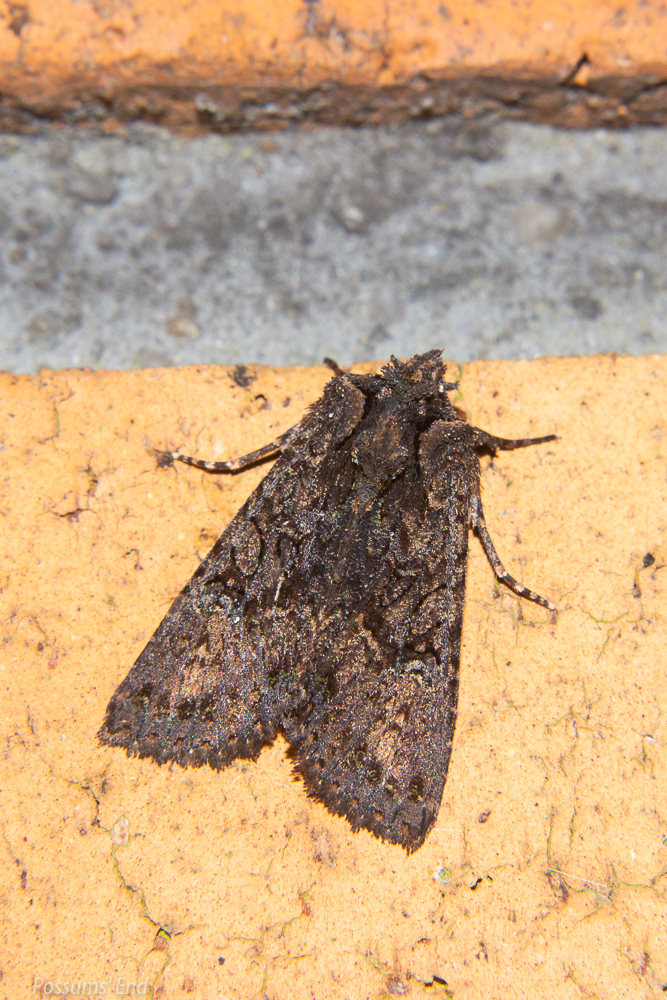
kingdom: Animalia
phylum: Arthropoda
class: Insecta
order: Lepidoptera
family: Noctuidae
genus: Meterana
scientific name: Meterana ochthistis
